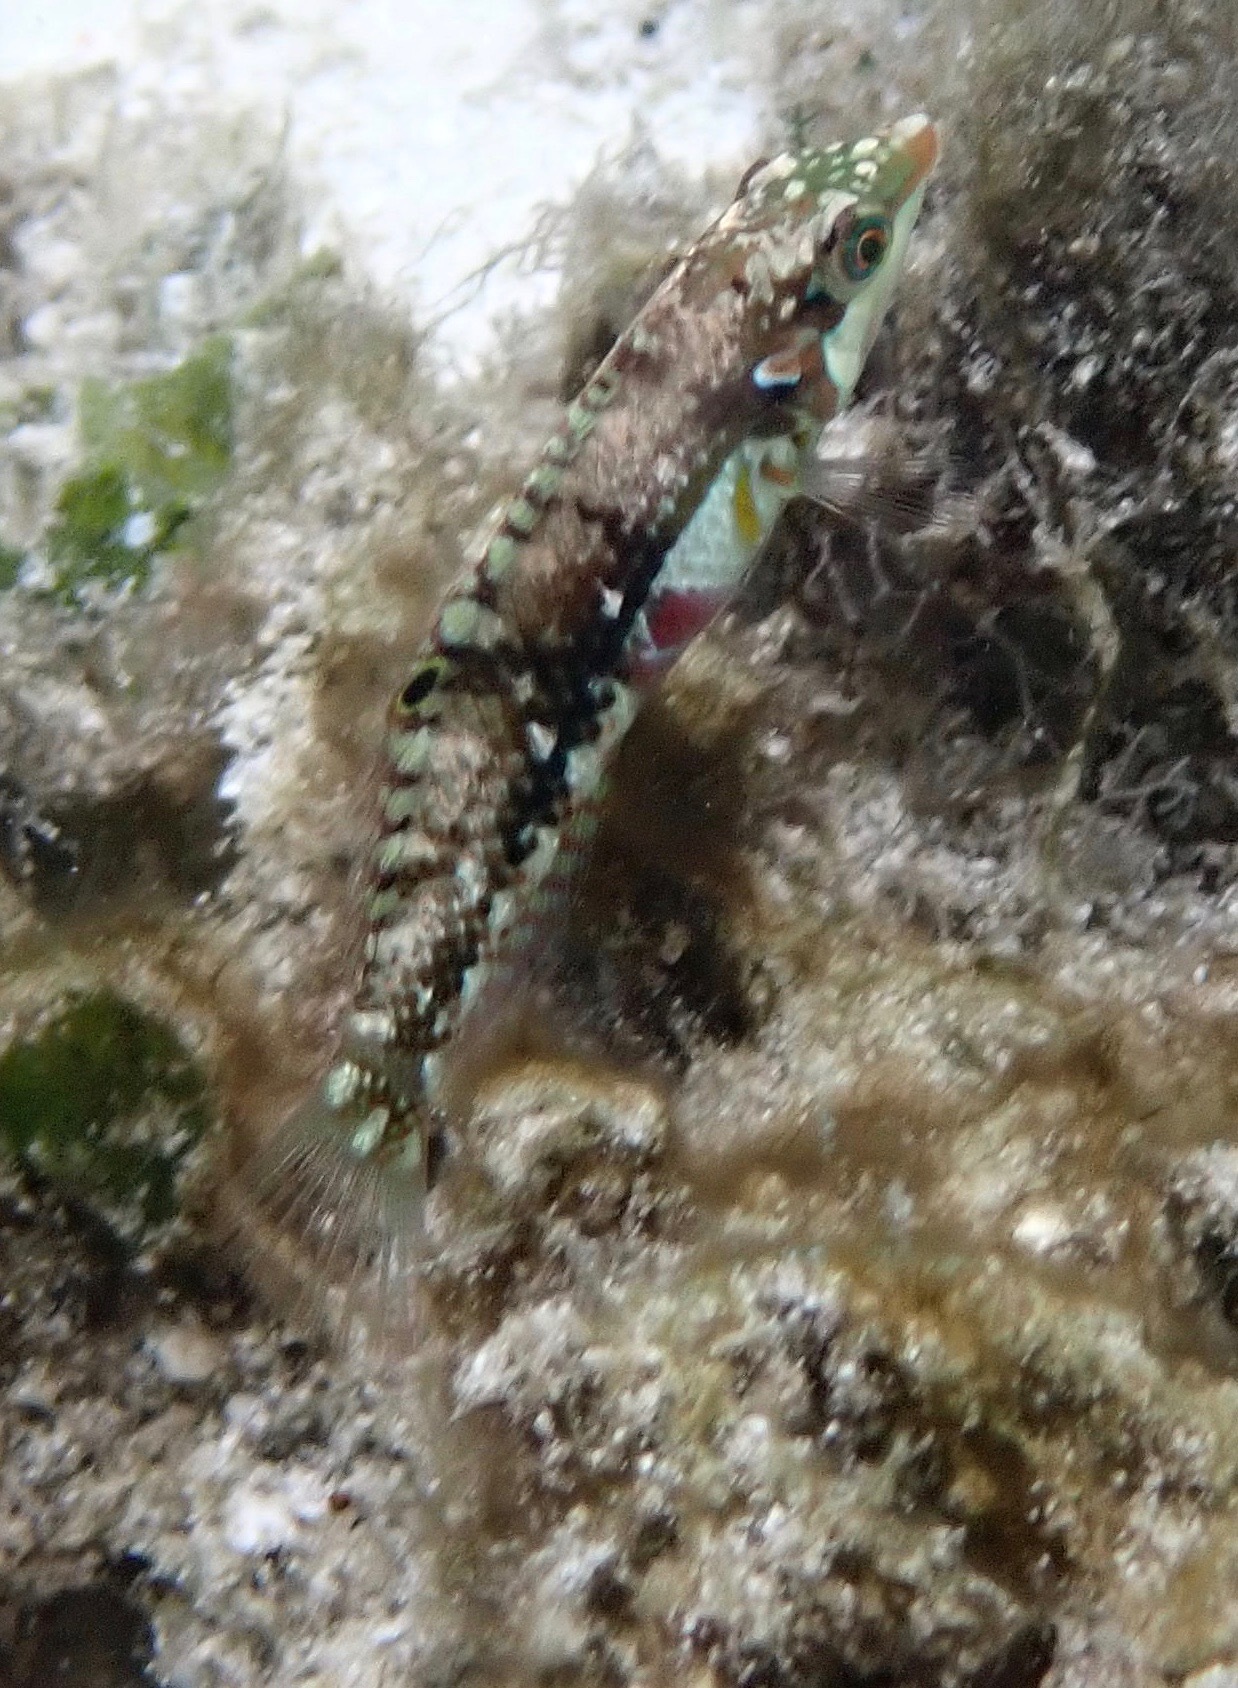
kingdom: Animalia
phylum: Chordata
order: Perciformes
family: Labridae
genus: Halichoeres
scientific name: Halichoeres nebulosus
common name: Clouded wrasse
